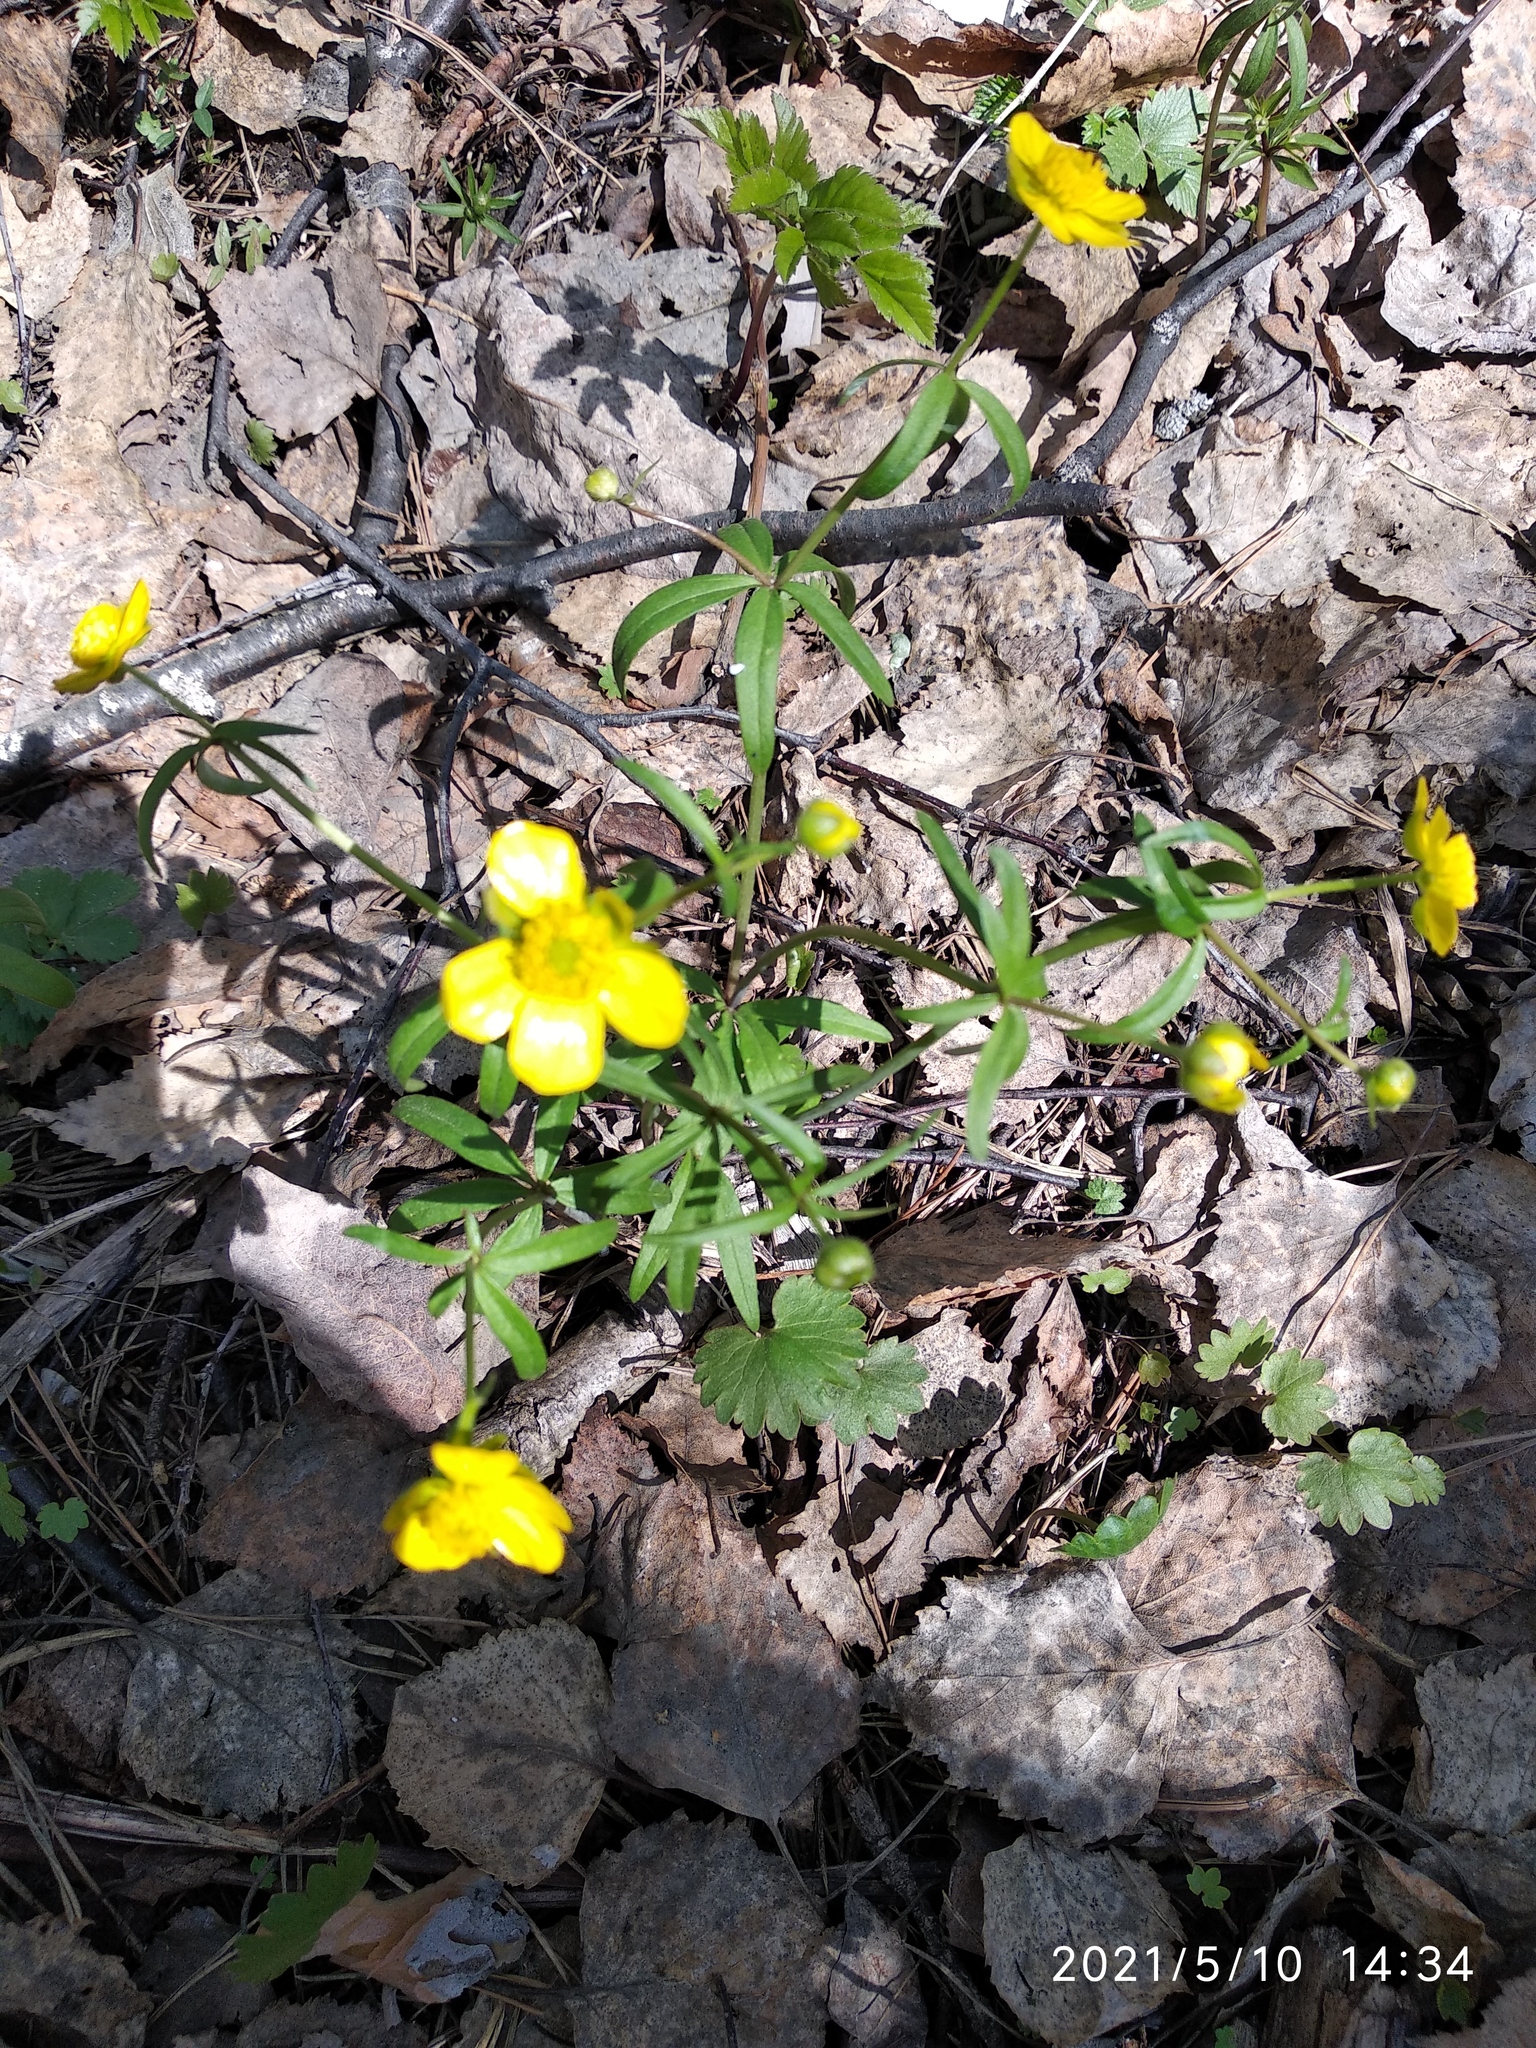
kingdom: Plantae
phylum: Tracheophyta
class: Magnoliopsida
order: Ranunculales
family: Ranunculaceae
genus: Ranunculus
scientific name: Ranunculus monophyllus
